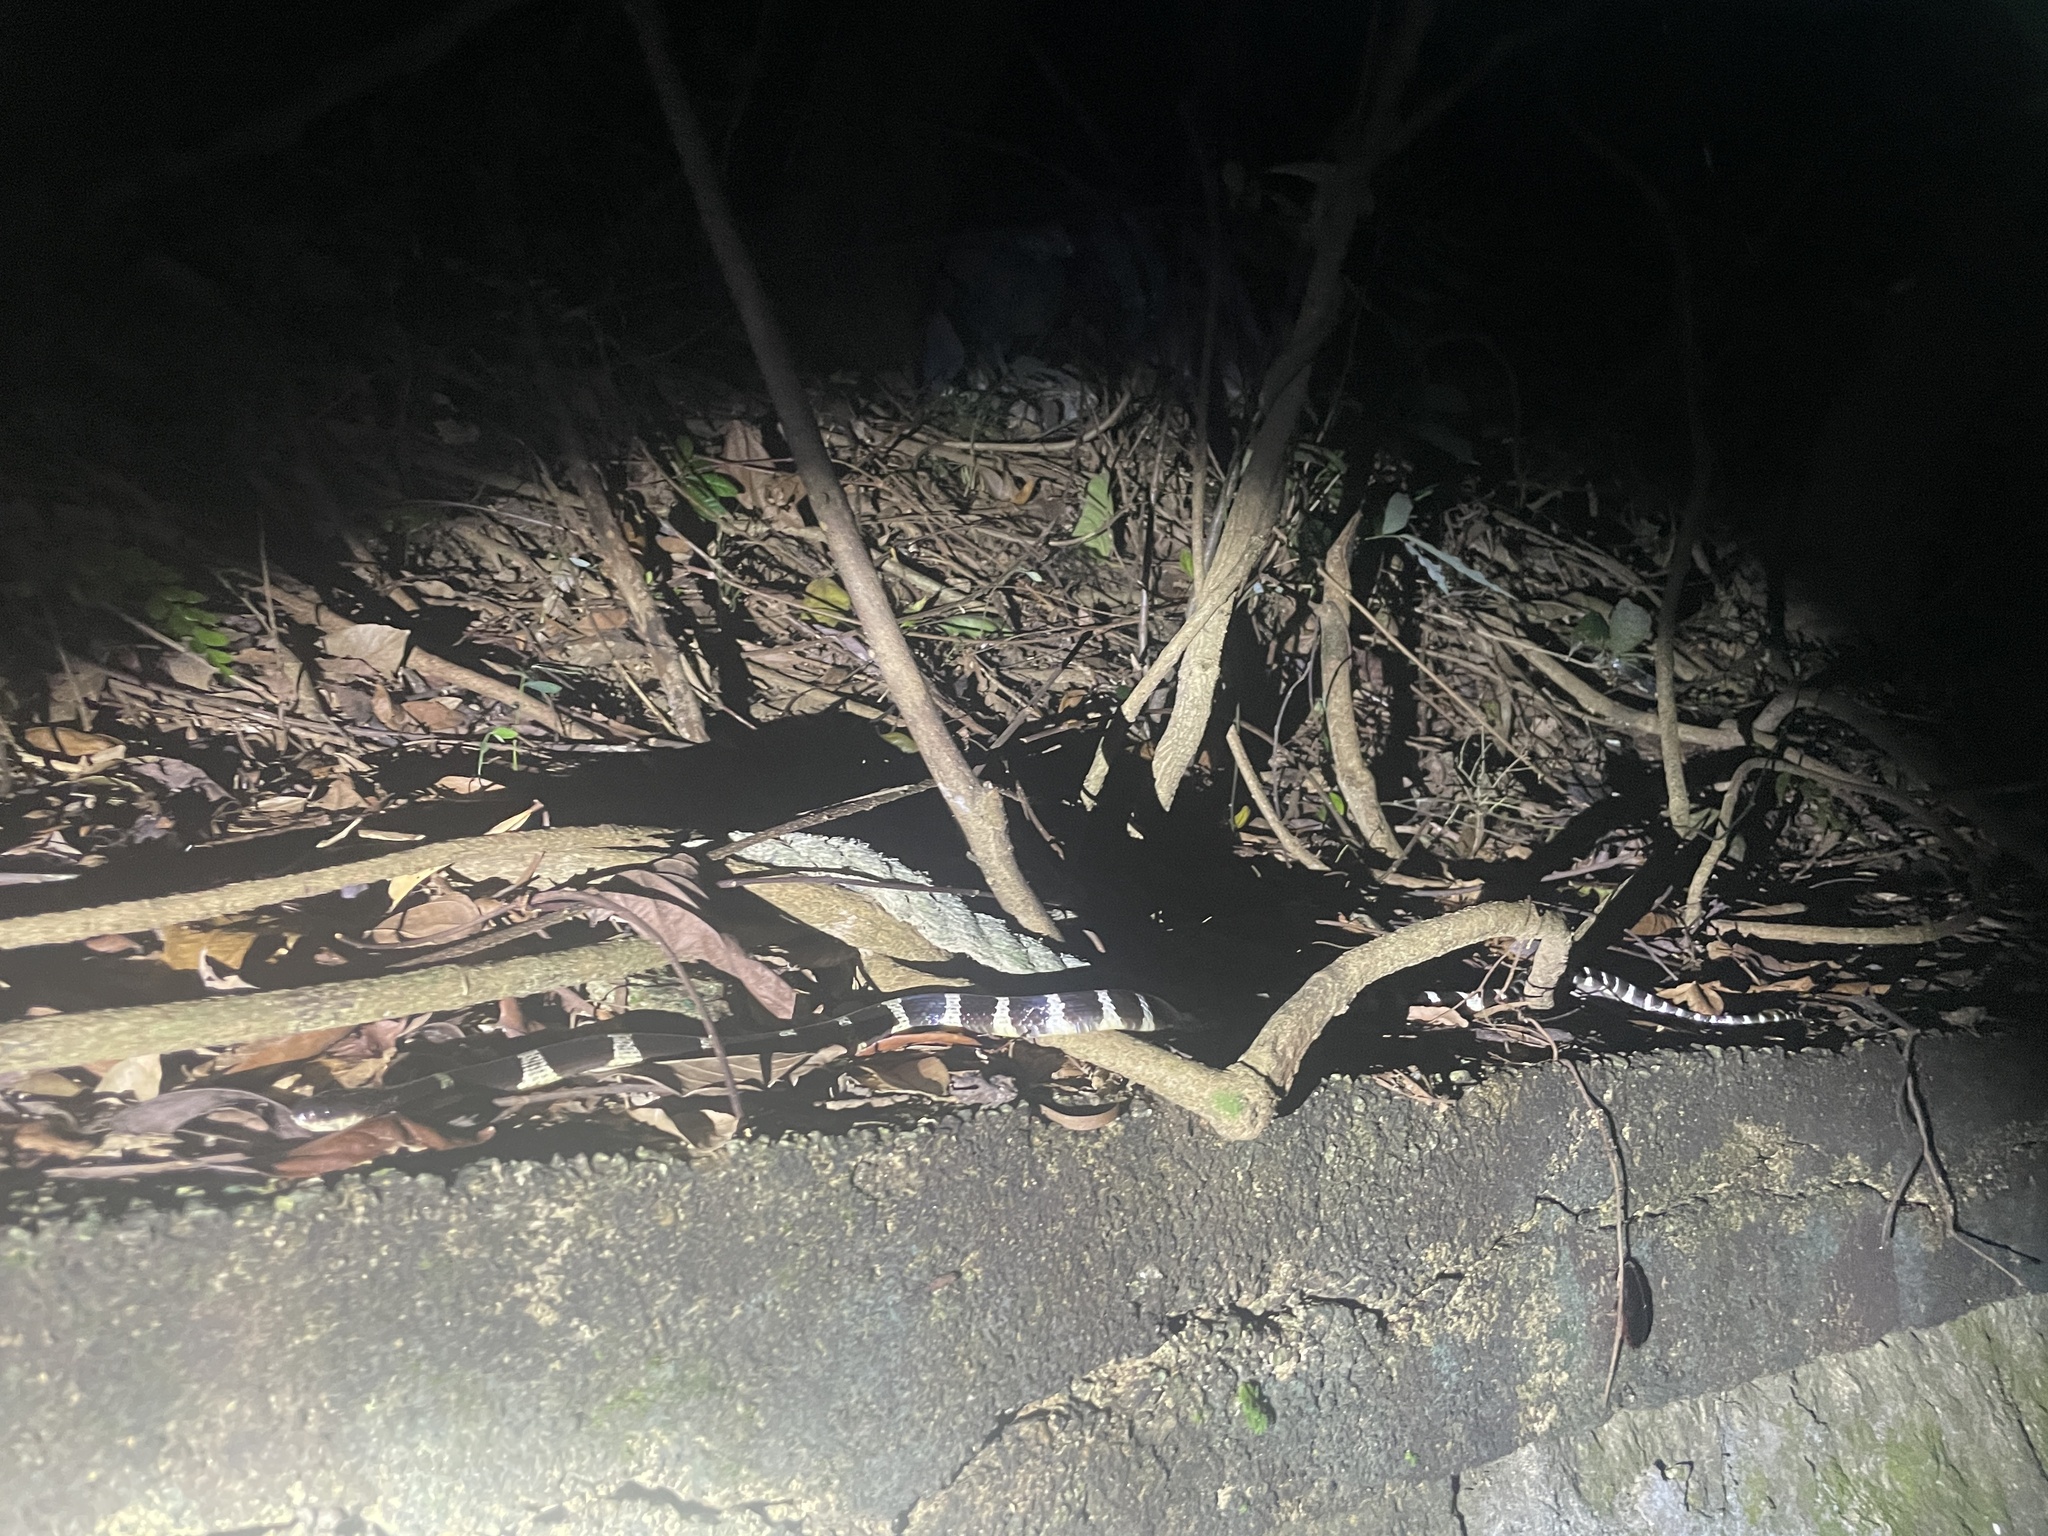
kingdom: Animalia
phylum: Chordata
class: Squamata
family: Elapidae
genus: Bungarus
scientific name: Bungarus multicinctus
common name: Many-banded krait
